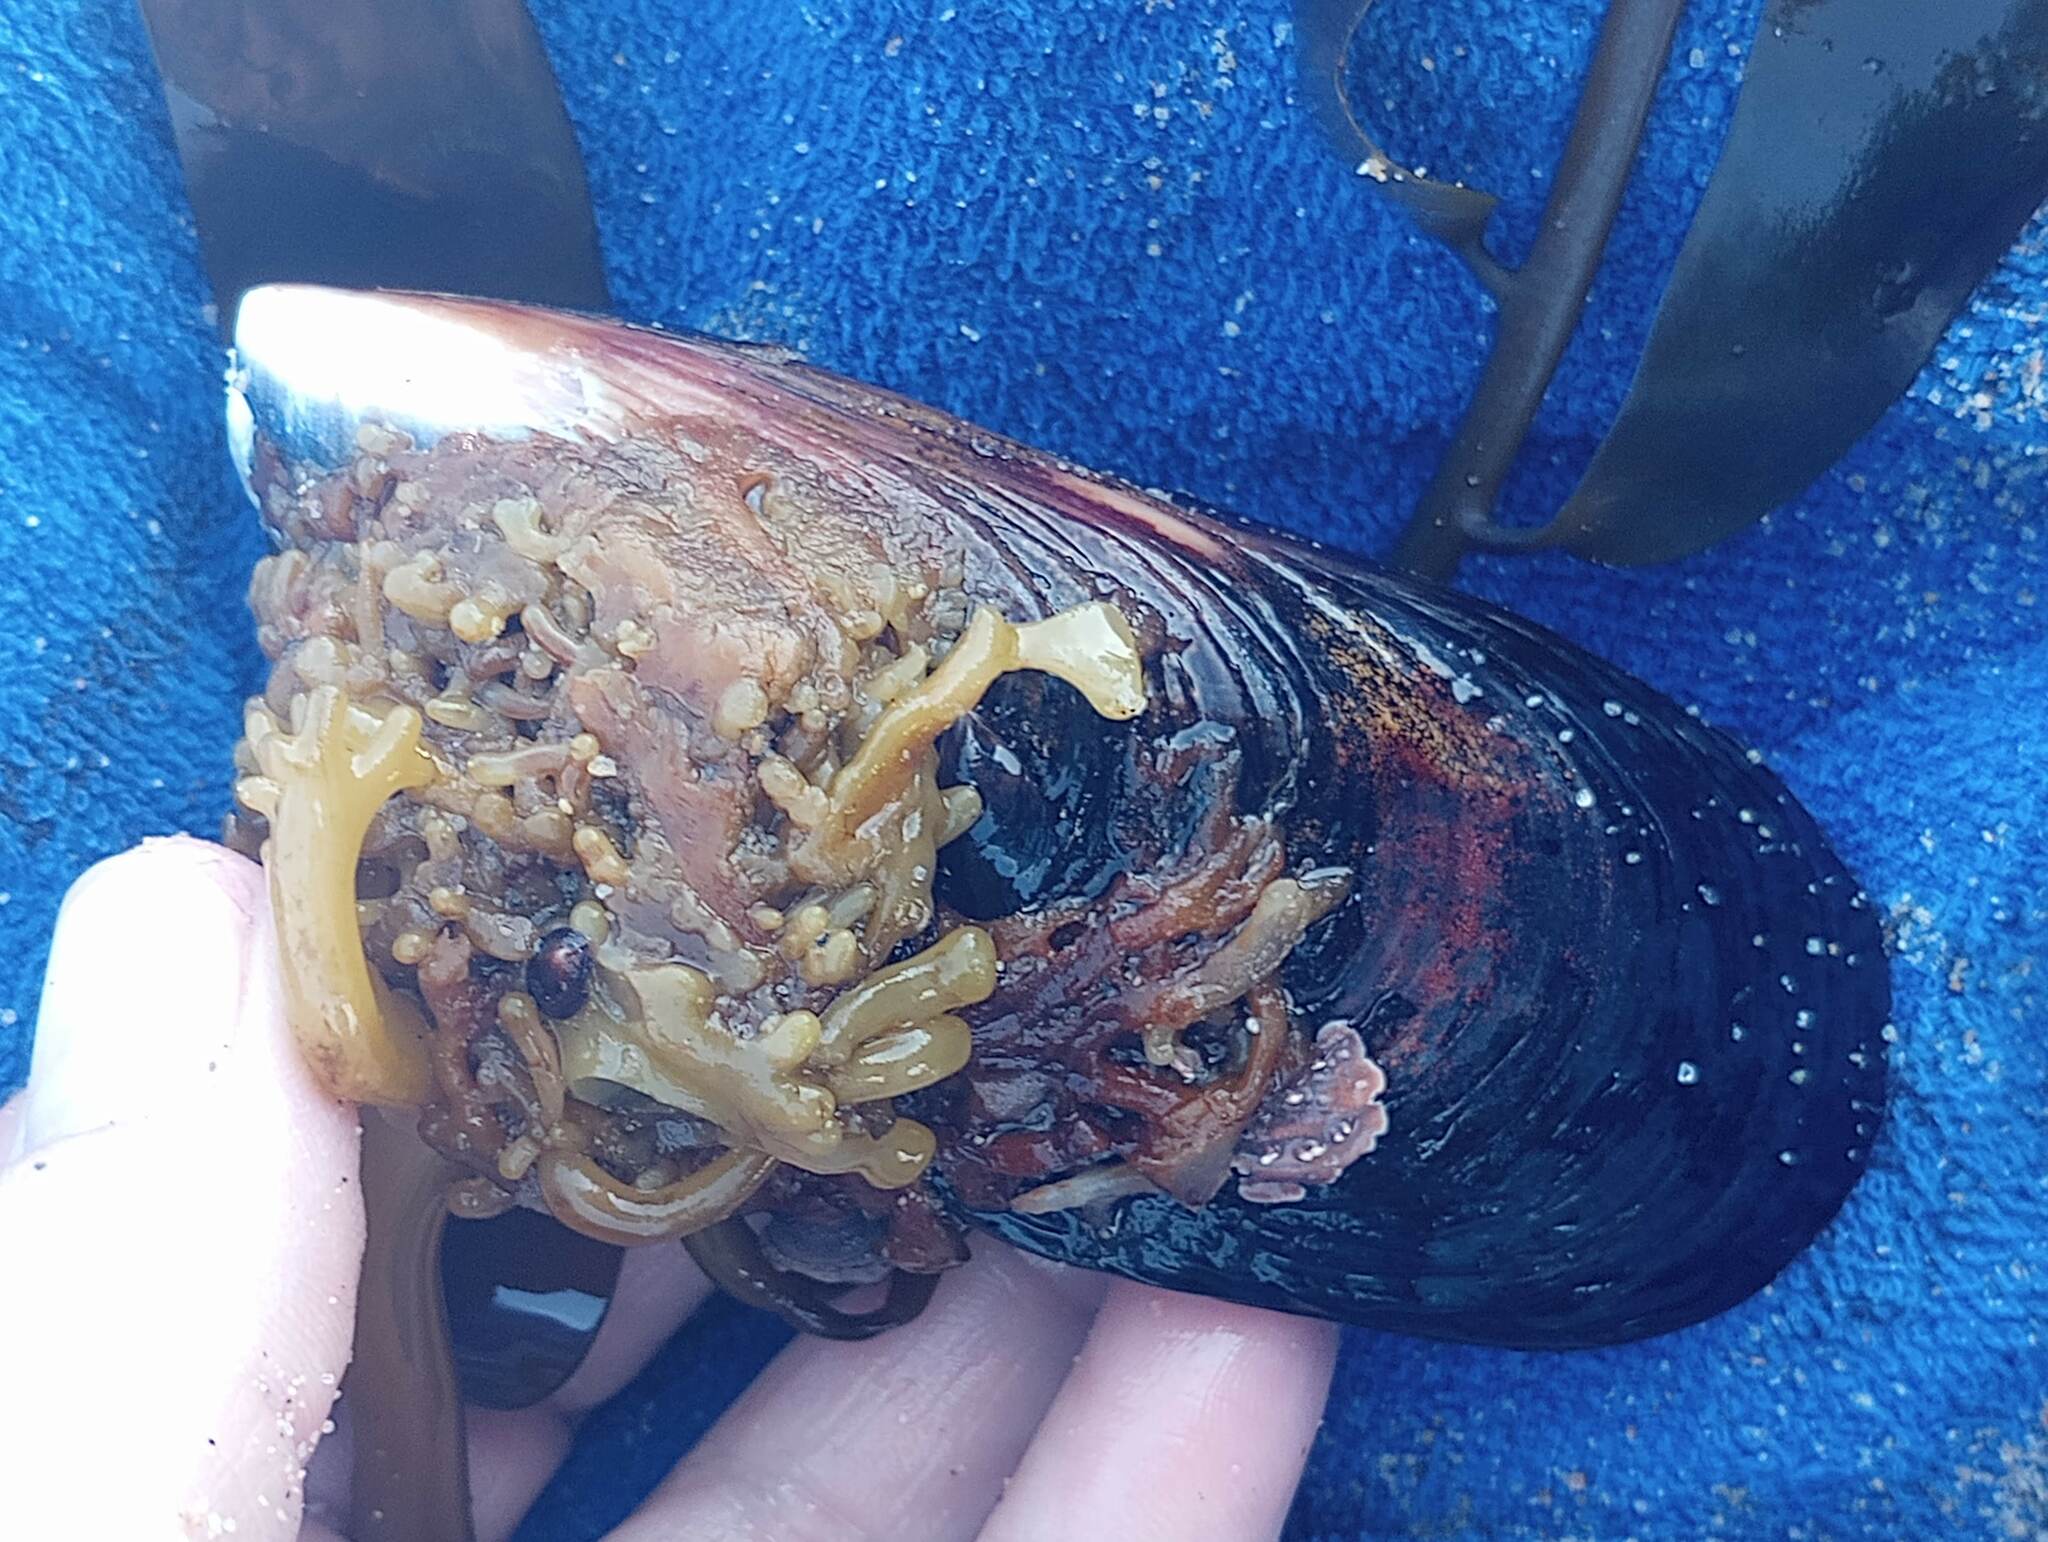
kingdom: Animalia
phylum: Mollusca
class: Bivalvia
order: Mytilida
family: Mytilidae
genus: Mytilus
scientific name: Mytilus californianus
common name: California mussel
